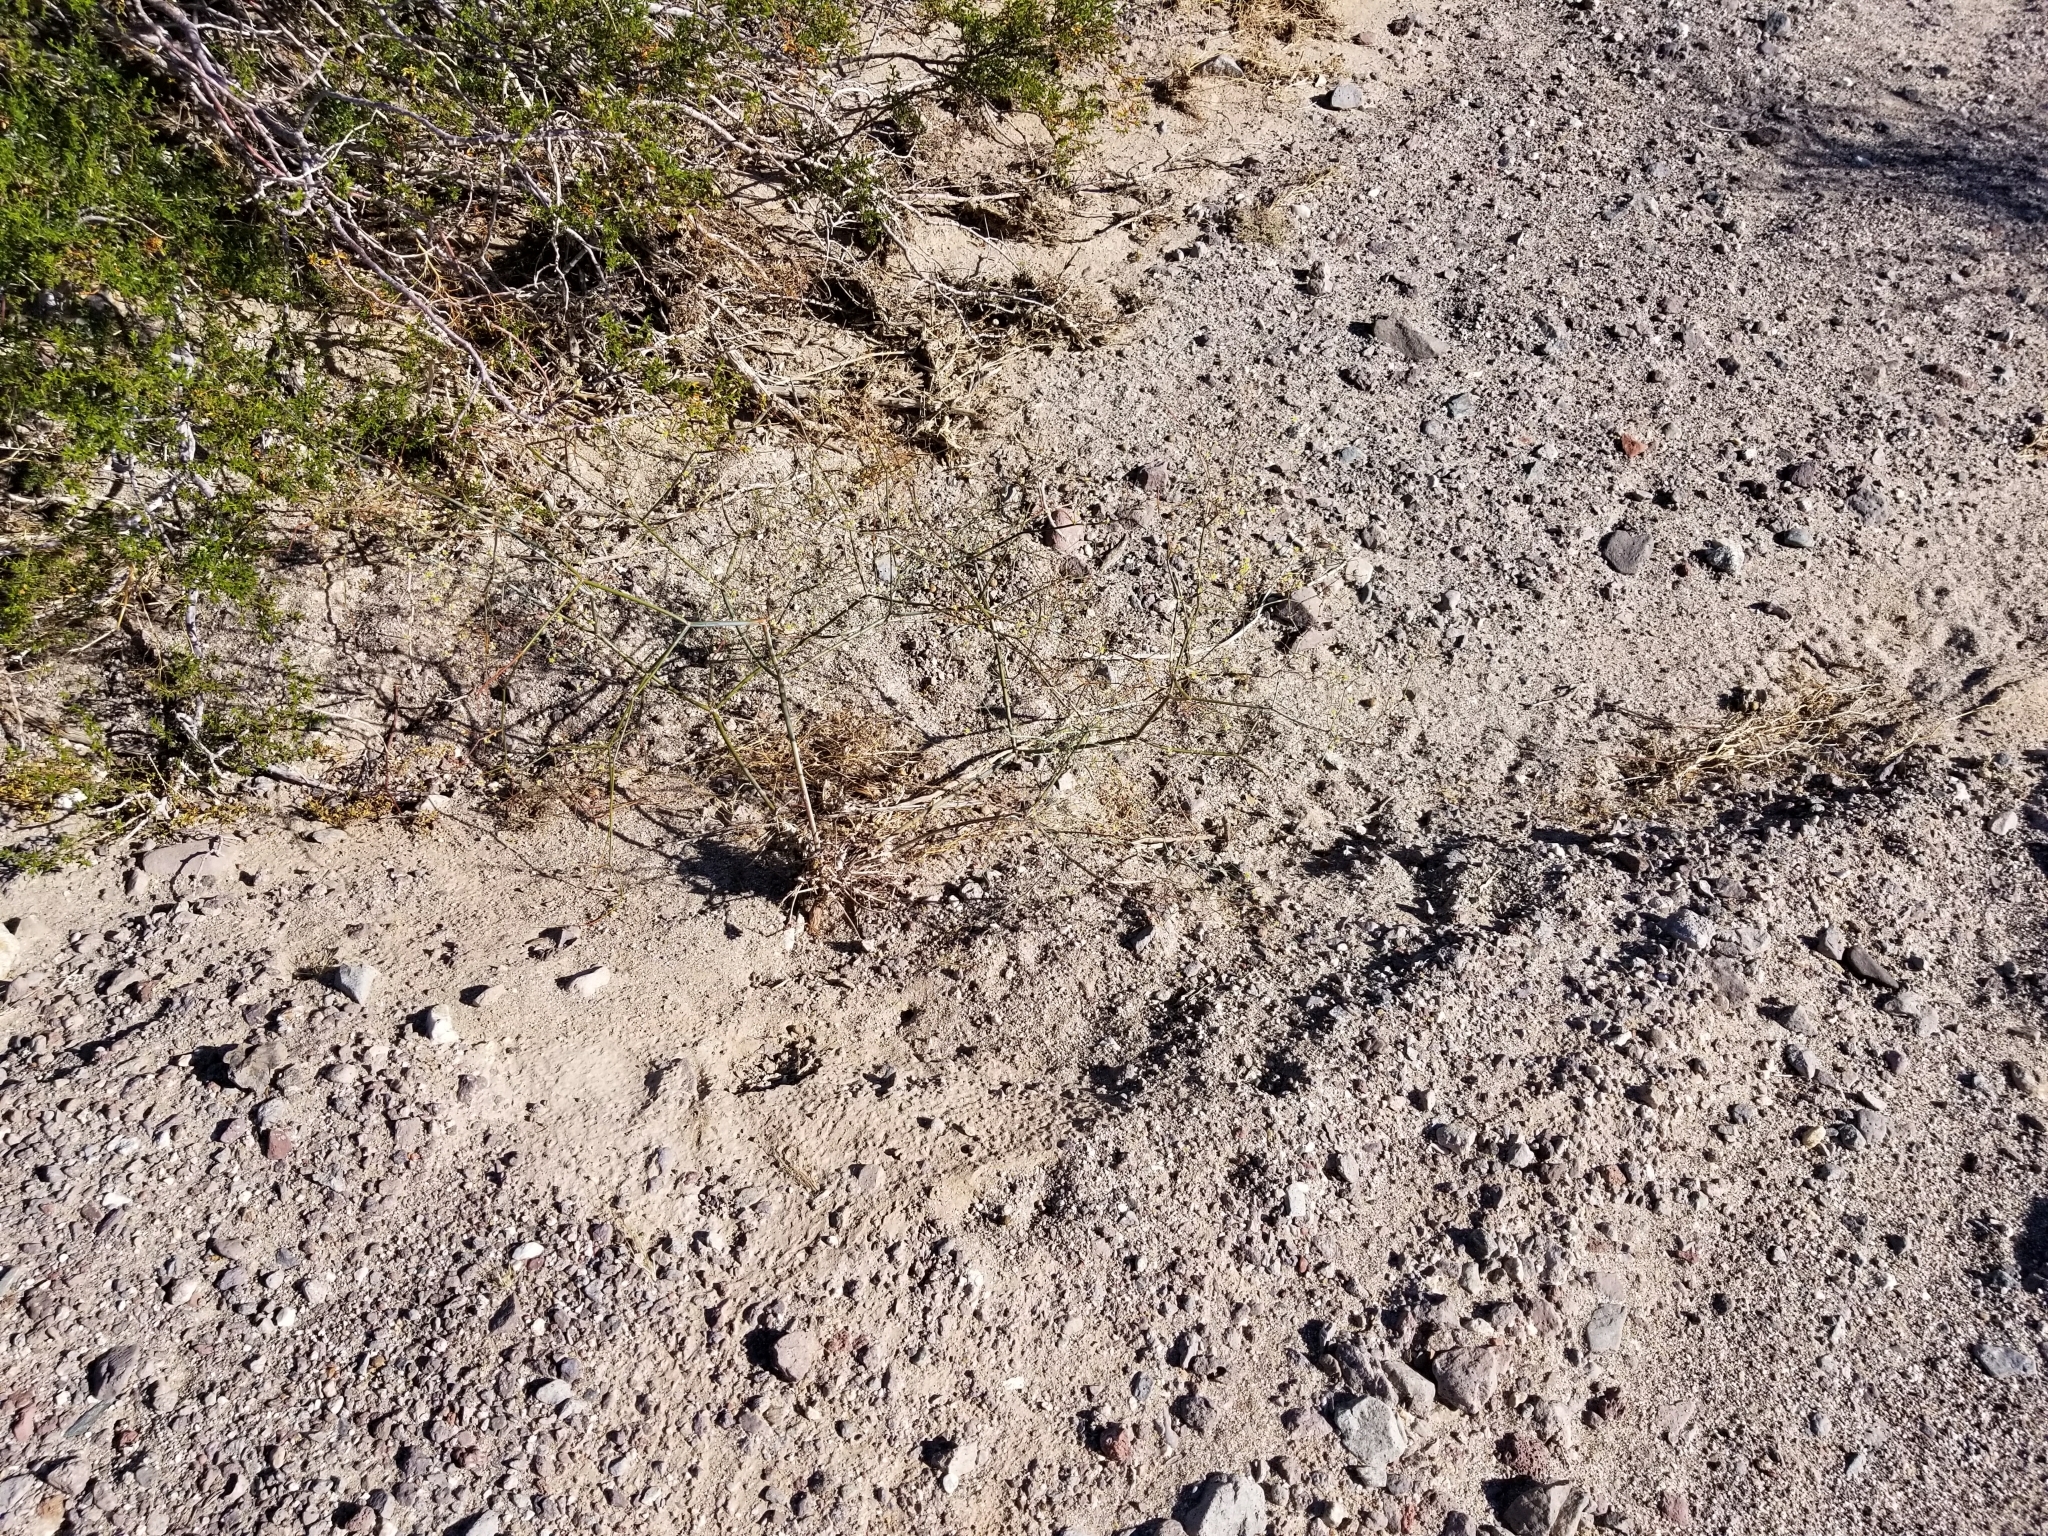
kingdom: Plantae
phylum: Tracheophyta
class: Magnoliopsida
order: Caryophyllales
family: Polygonaceae
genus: Eriogonum
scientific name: Eriogonum inflatum
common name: Desert trumpet
